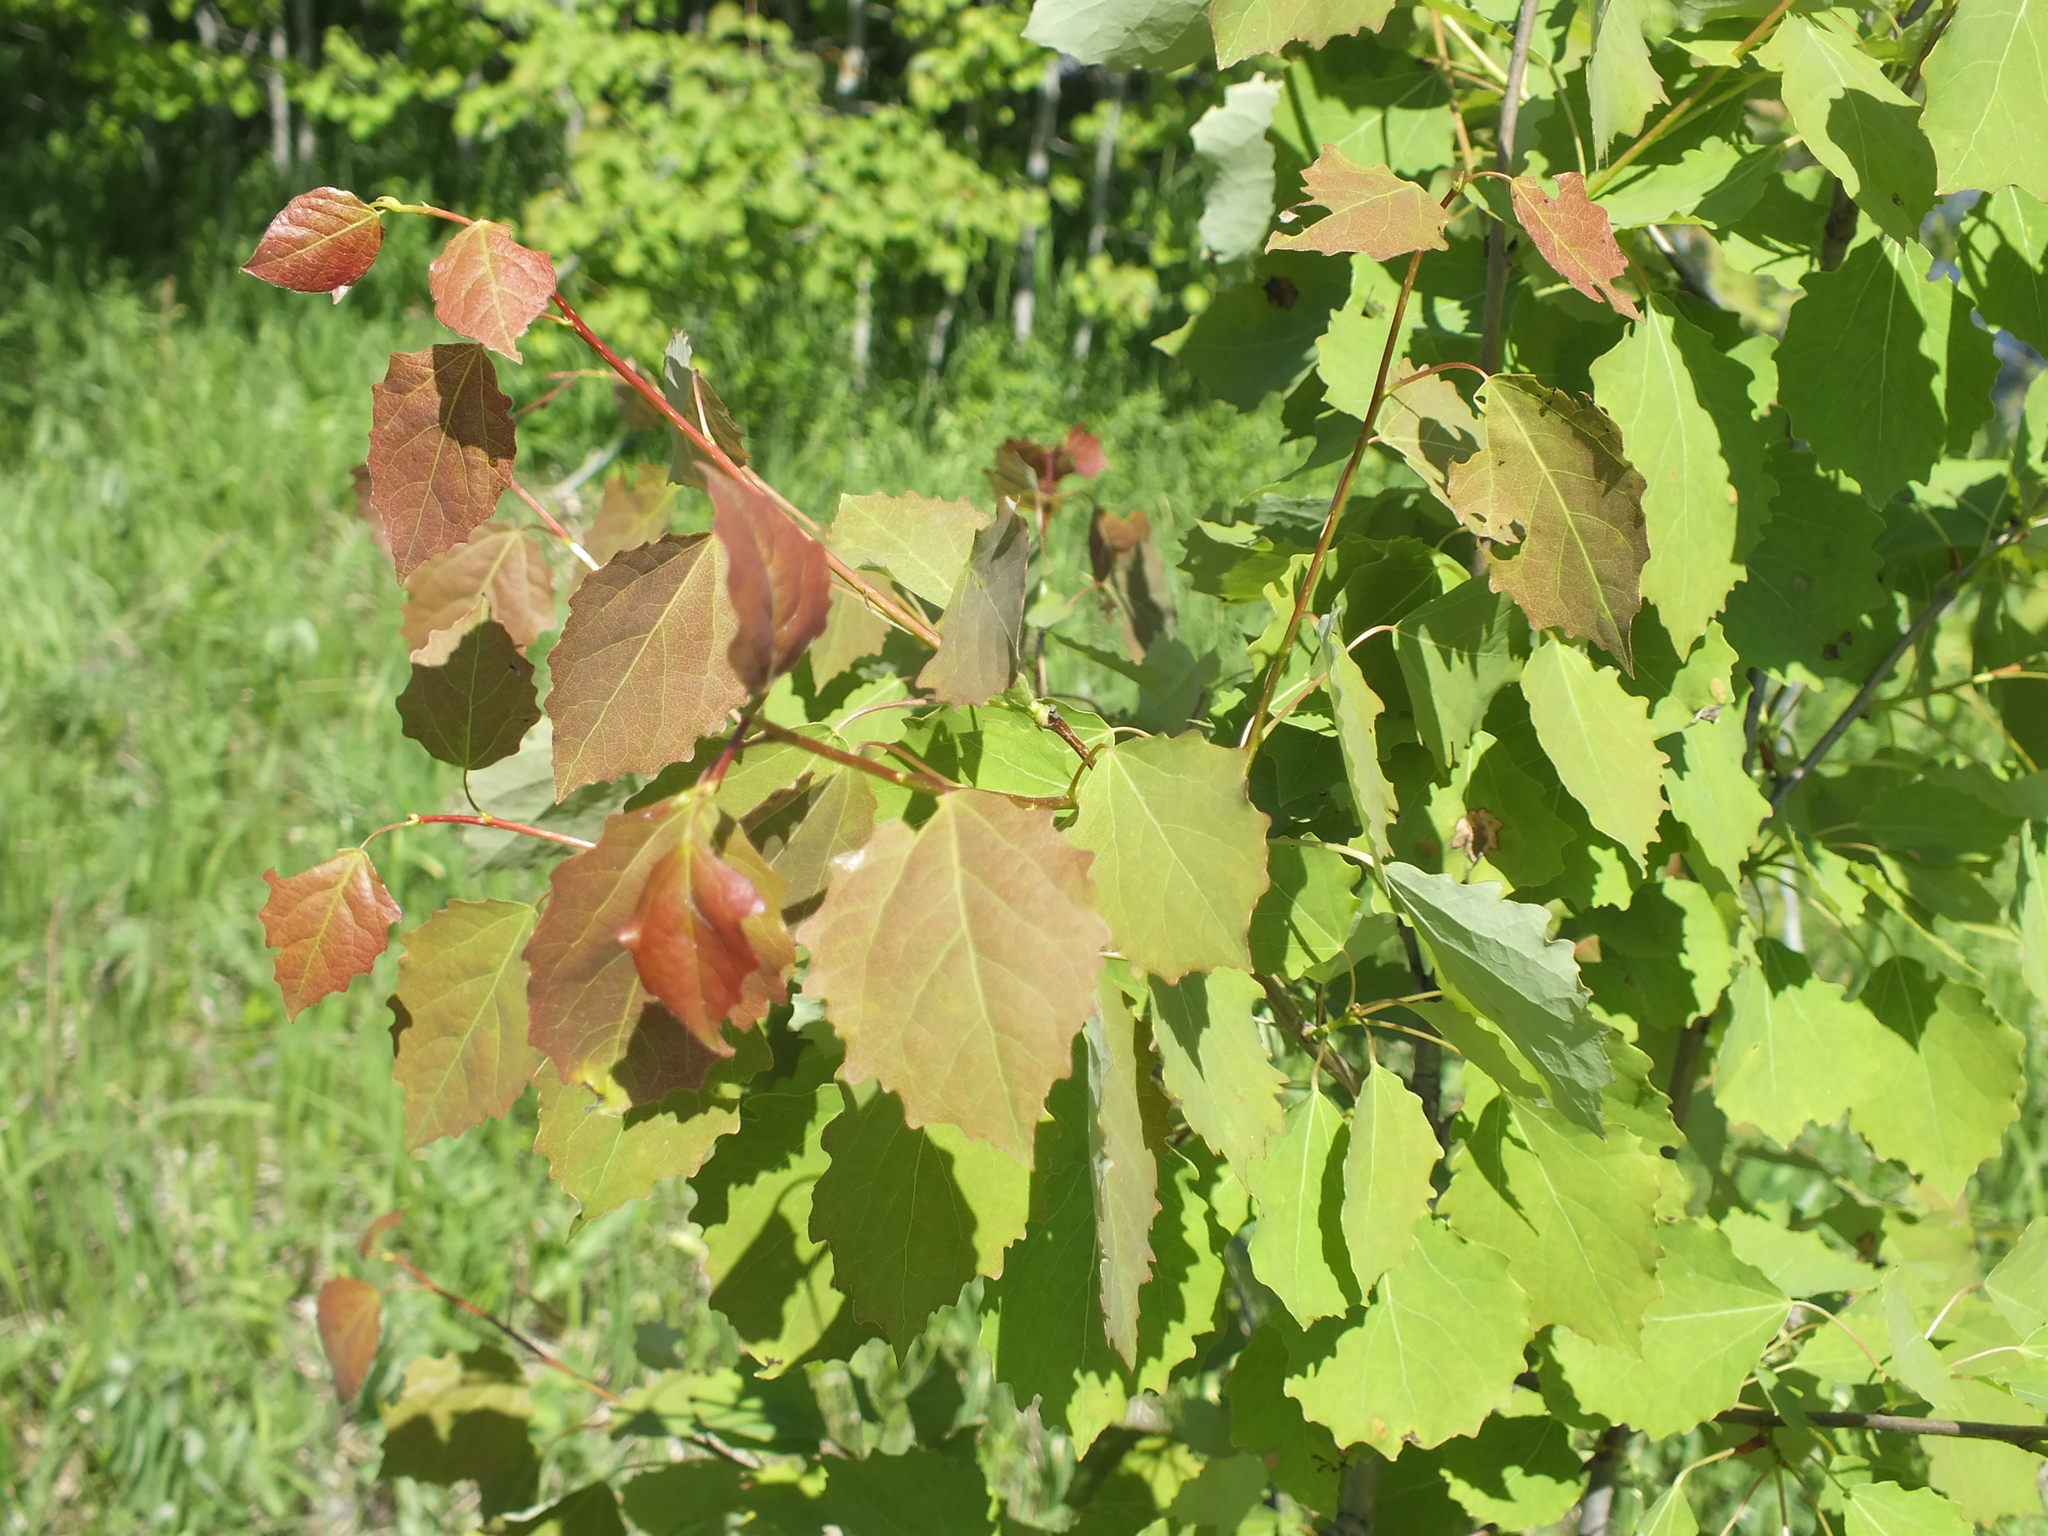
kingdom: Plantae
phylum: Tracheophyta
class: Magnoliopsida
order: Malpighiales
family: Salicaceae
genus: Populus
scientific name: Populus tremula
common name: European aspen
